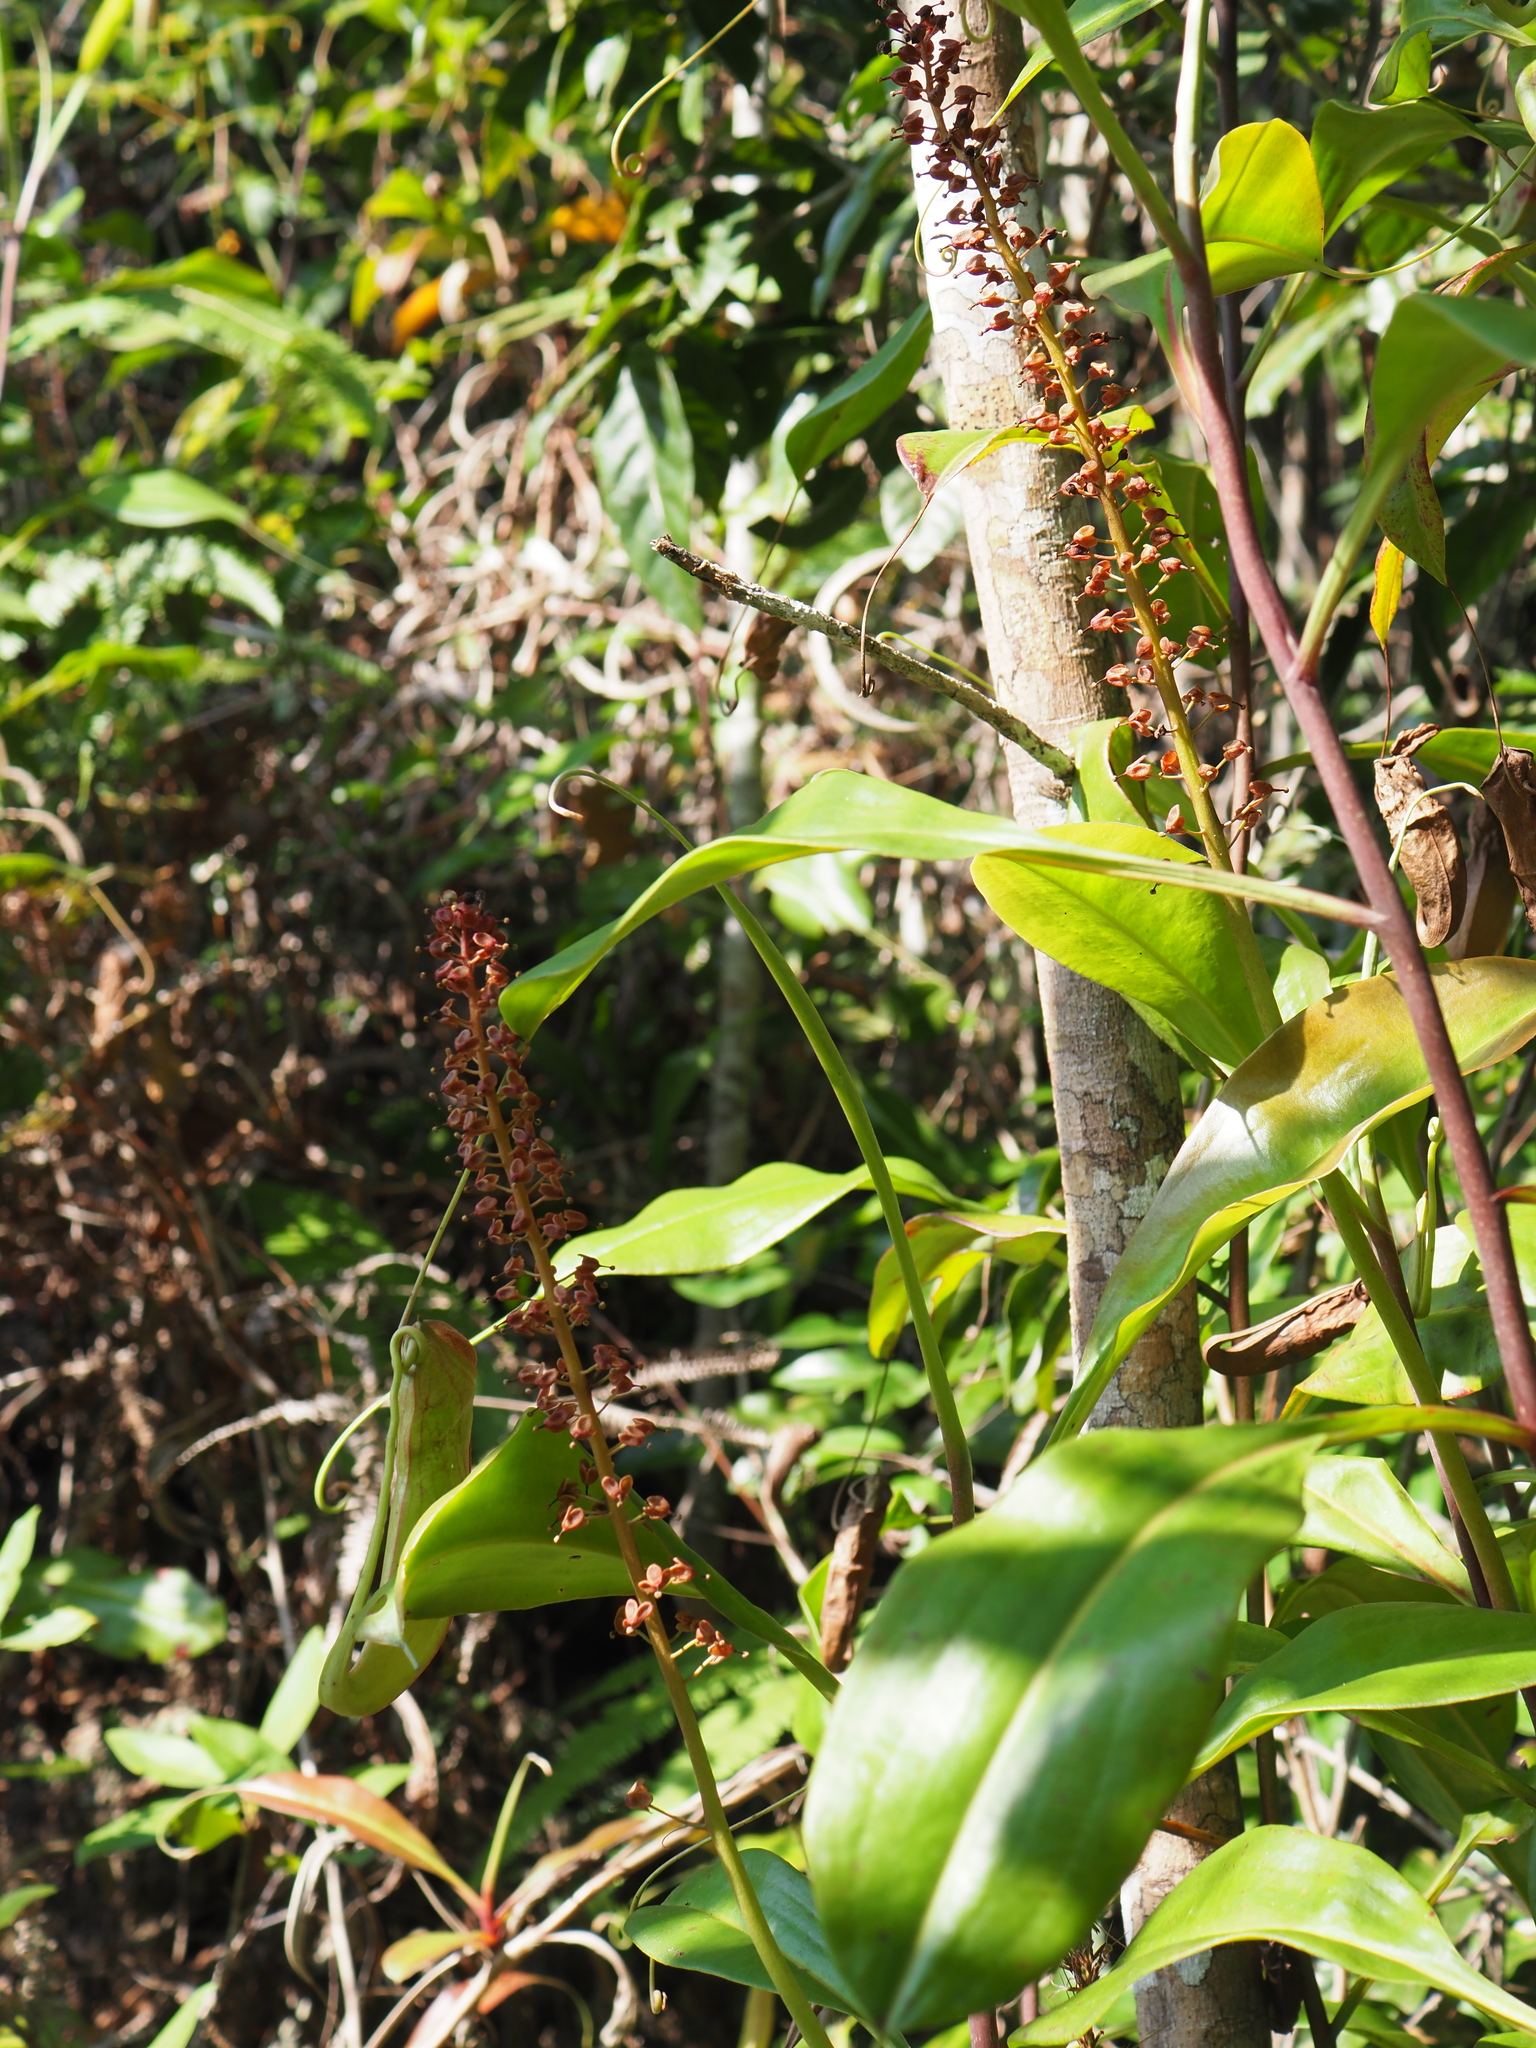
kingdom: Plantae
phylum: Tracheophyta
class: Magnoliopsida
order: Caryophyllales
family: Nepenthaceae
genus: Nepenthes
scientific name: Nepenthes mirabilis
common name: Tropical pitcherplant
